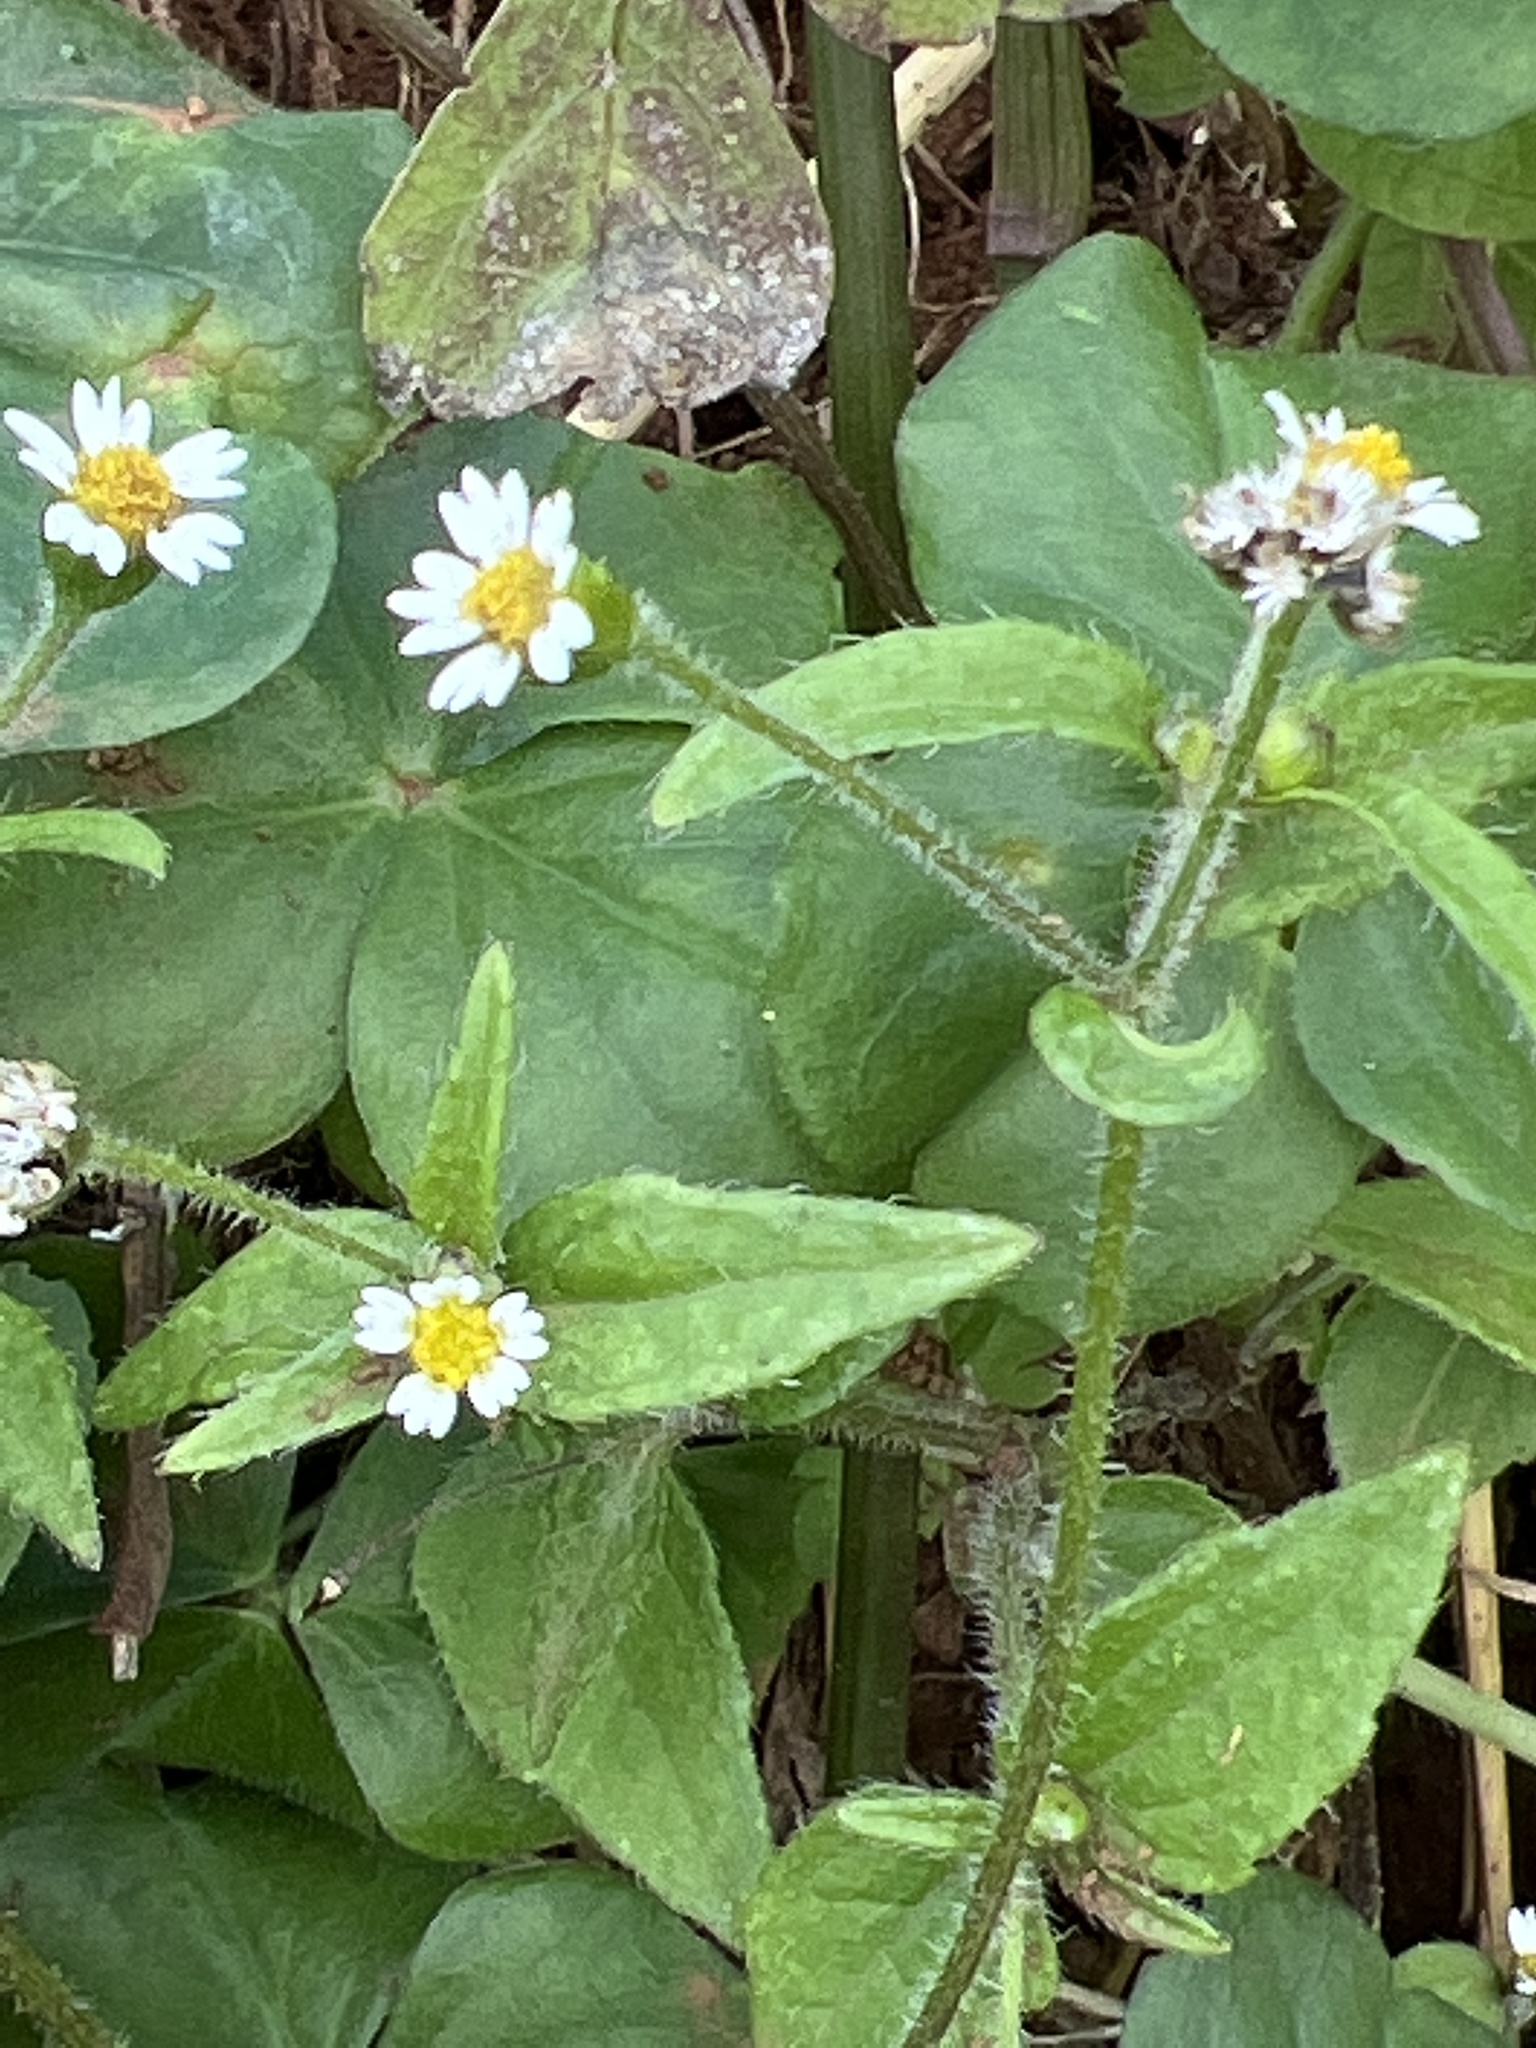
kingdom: Plantae
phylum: Tracheophyta
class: Magnoliopsida
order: Asterales
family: Asteraceae
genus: Galinsoga
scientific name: Galinsoga quadriradiata
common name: Shaggy soldier
